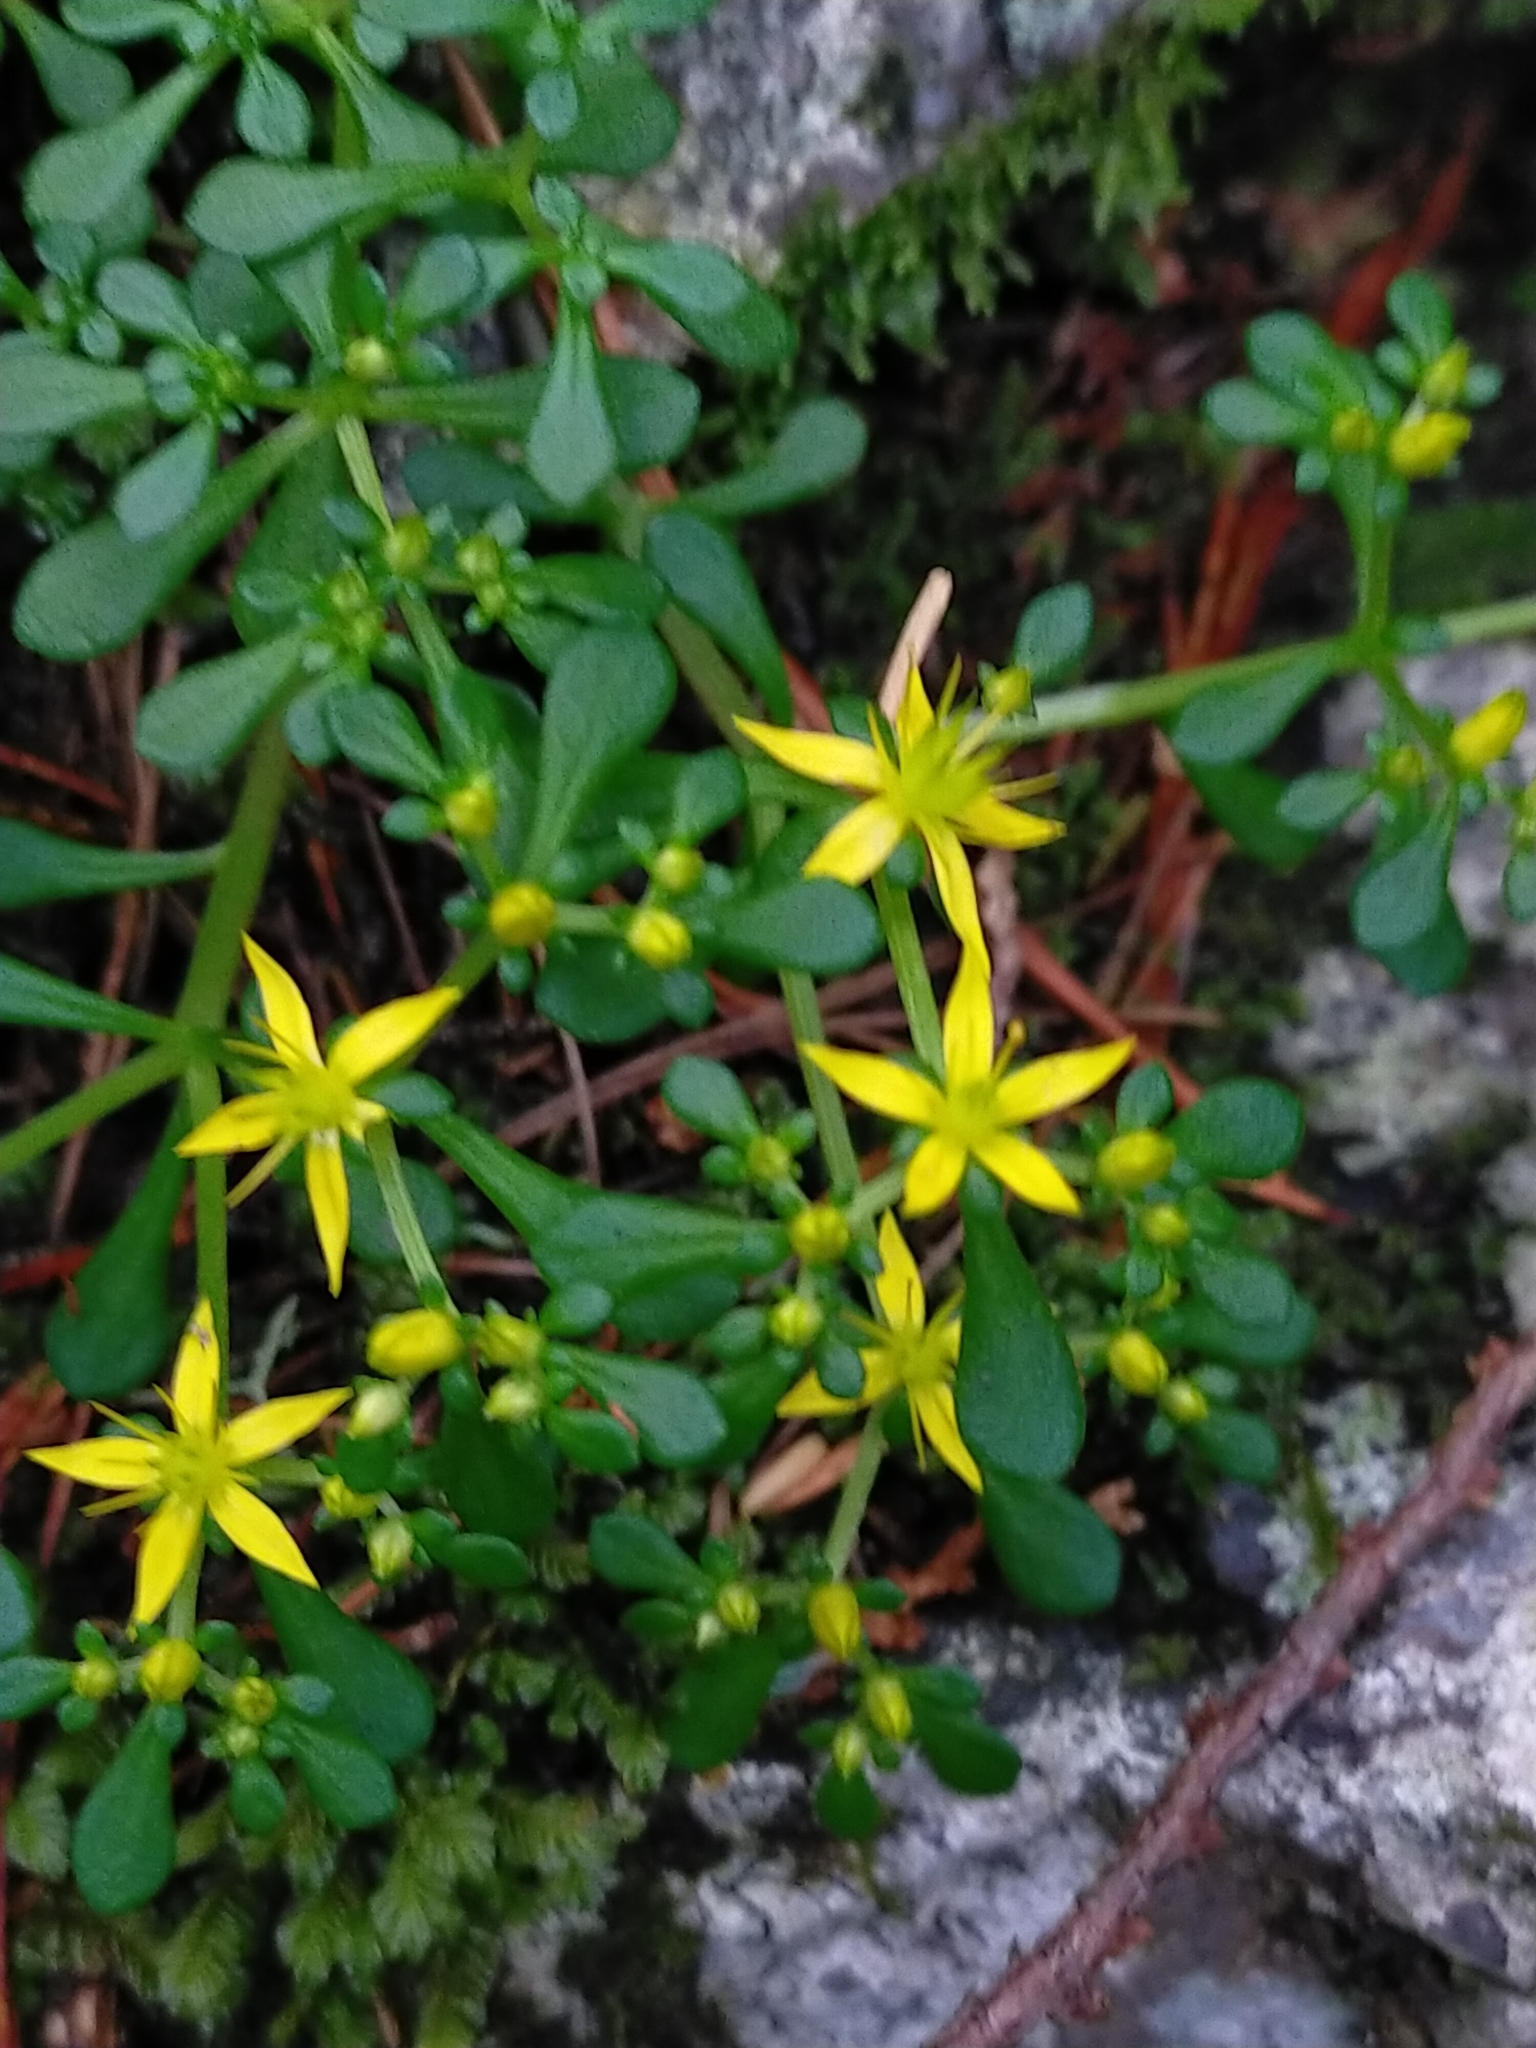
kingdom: Plantae
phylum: Tracheophyta
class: Magnoliopsida
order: Saxifragales
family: Crassulaceae
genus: Sedum
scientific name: Sedum actinocarpum
